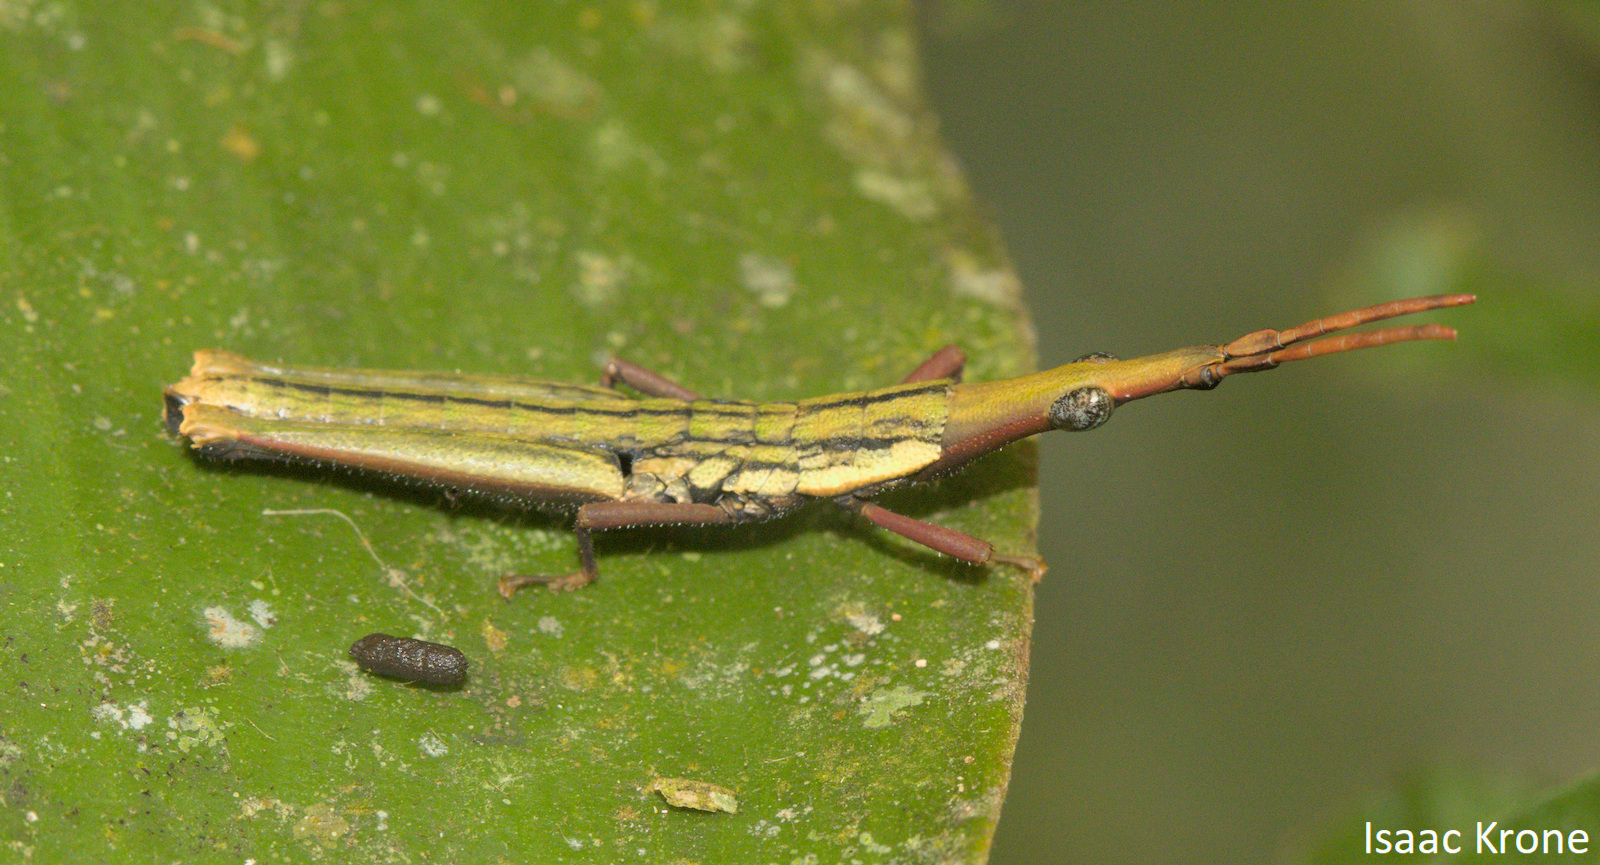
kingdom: Animalia
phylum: Arthropoda
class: Insecta
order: Orthoptera
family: Pyrgomorphidae
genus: Omura
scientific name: Omura congrua
